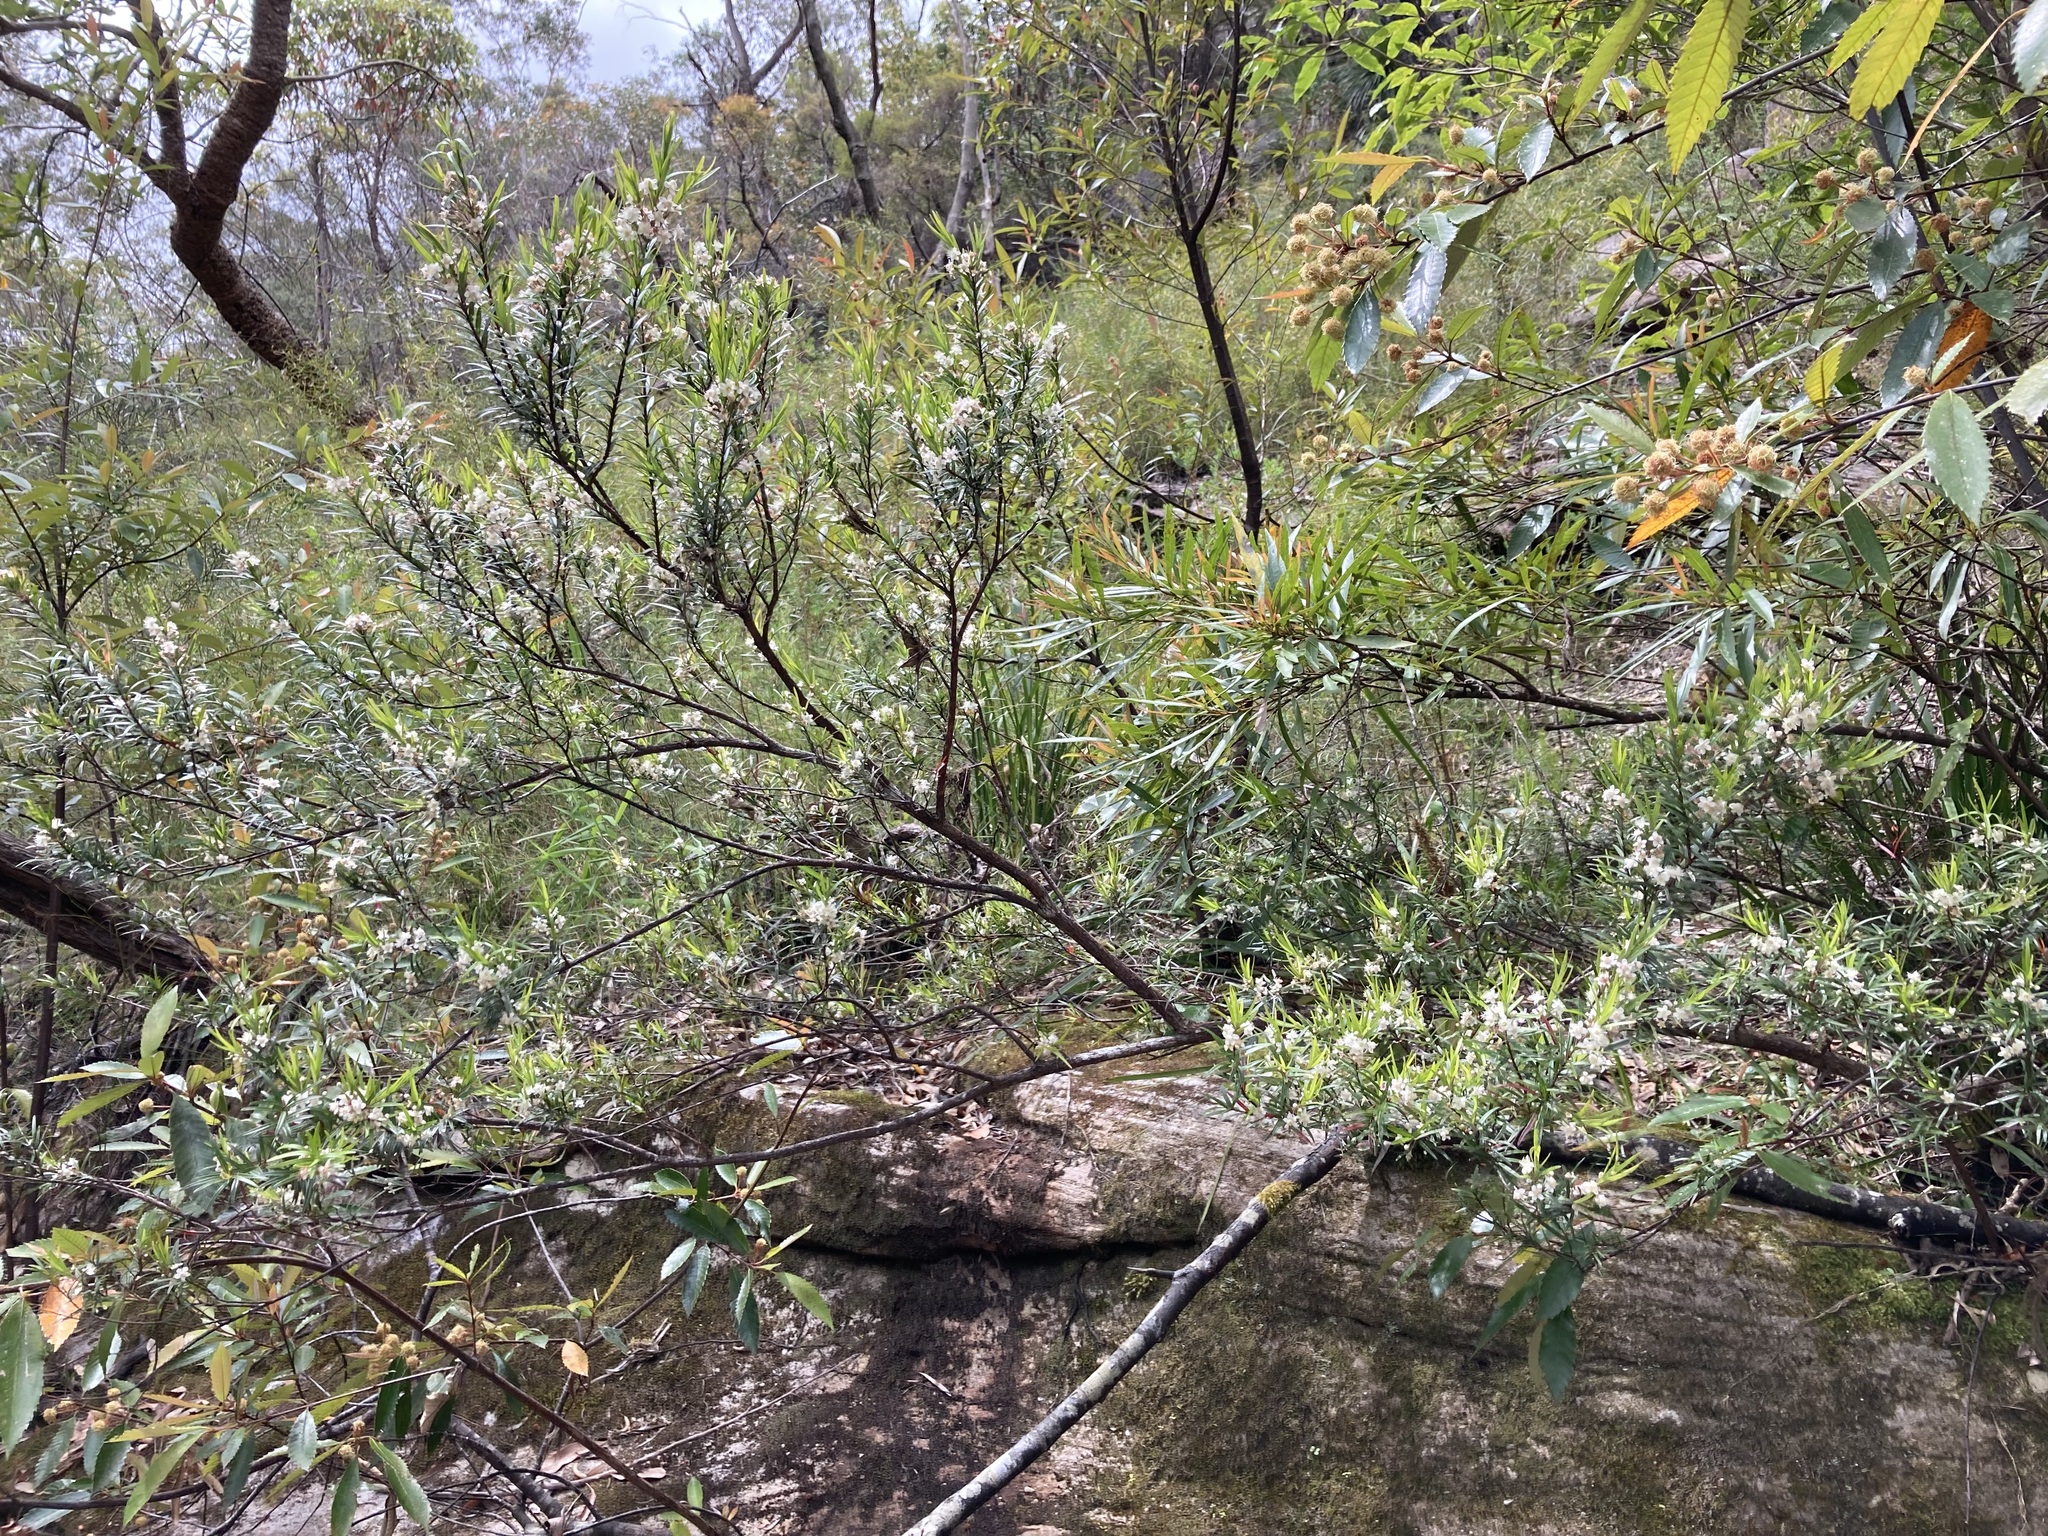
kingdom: Plantae
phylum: Tracheophyta
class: Magnoliopsida
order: Myrtales
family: Myrtaceae
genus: Austromyrtus
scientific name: Austromyrtus tenuifolia
